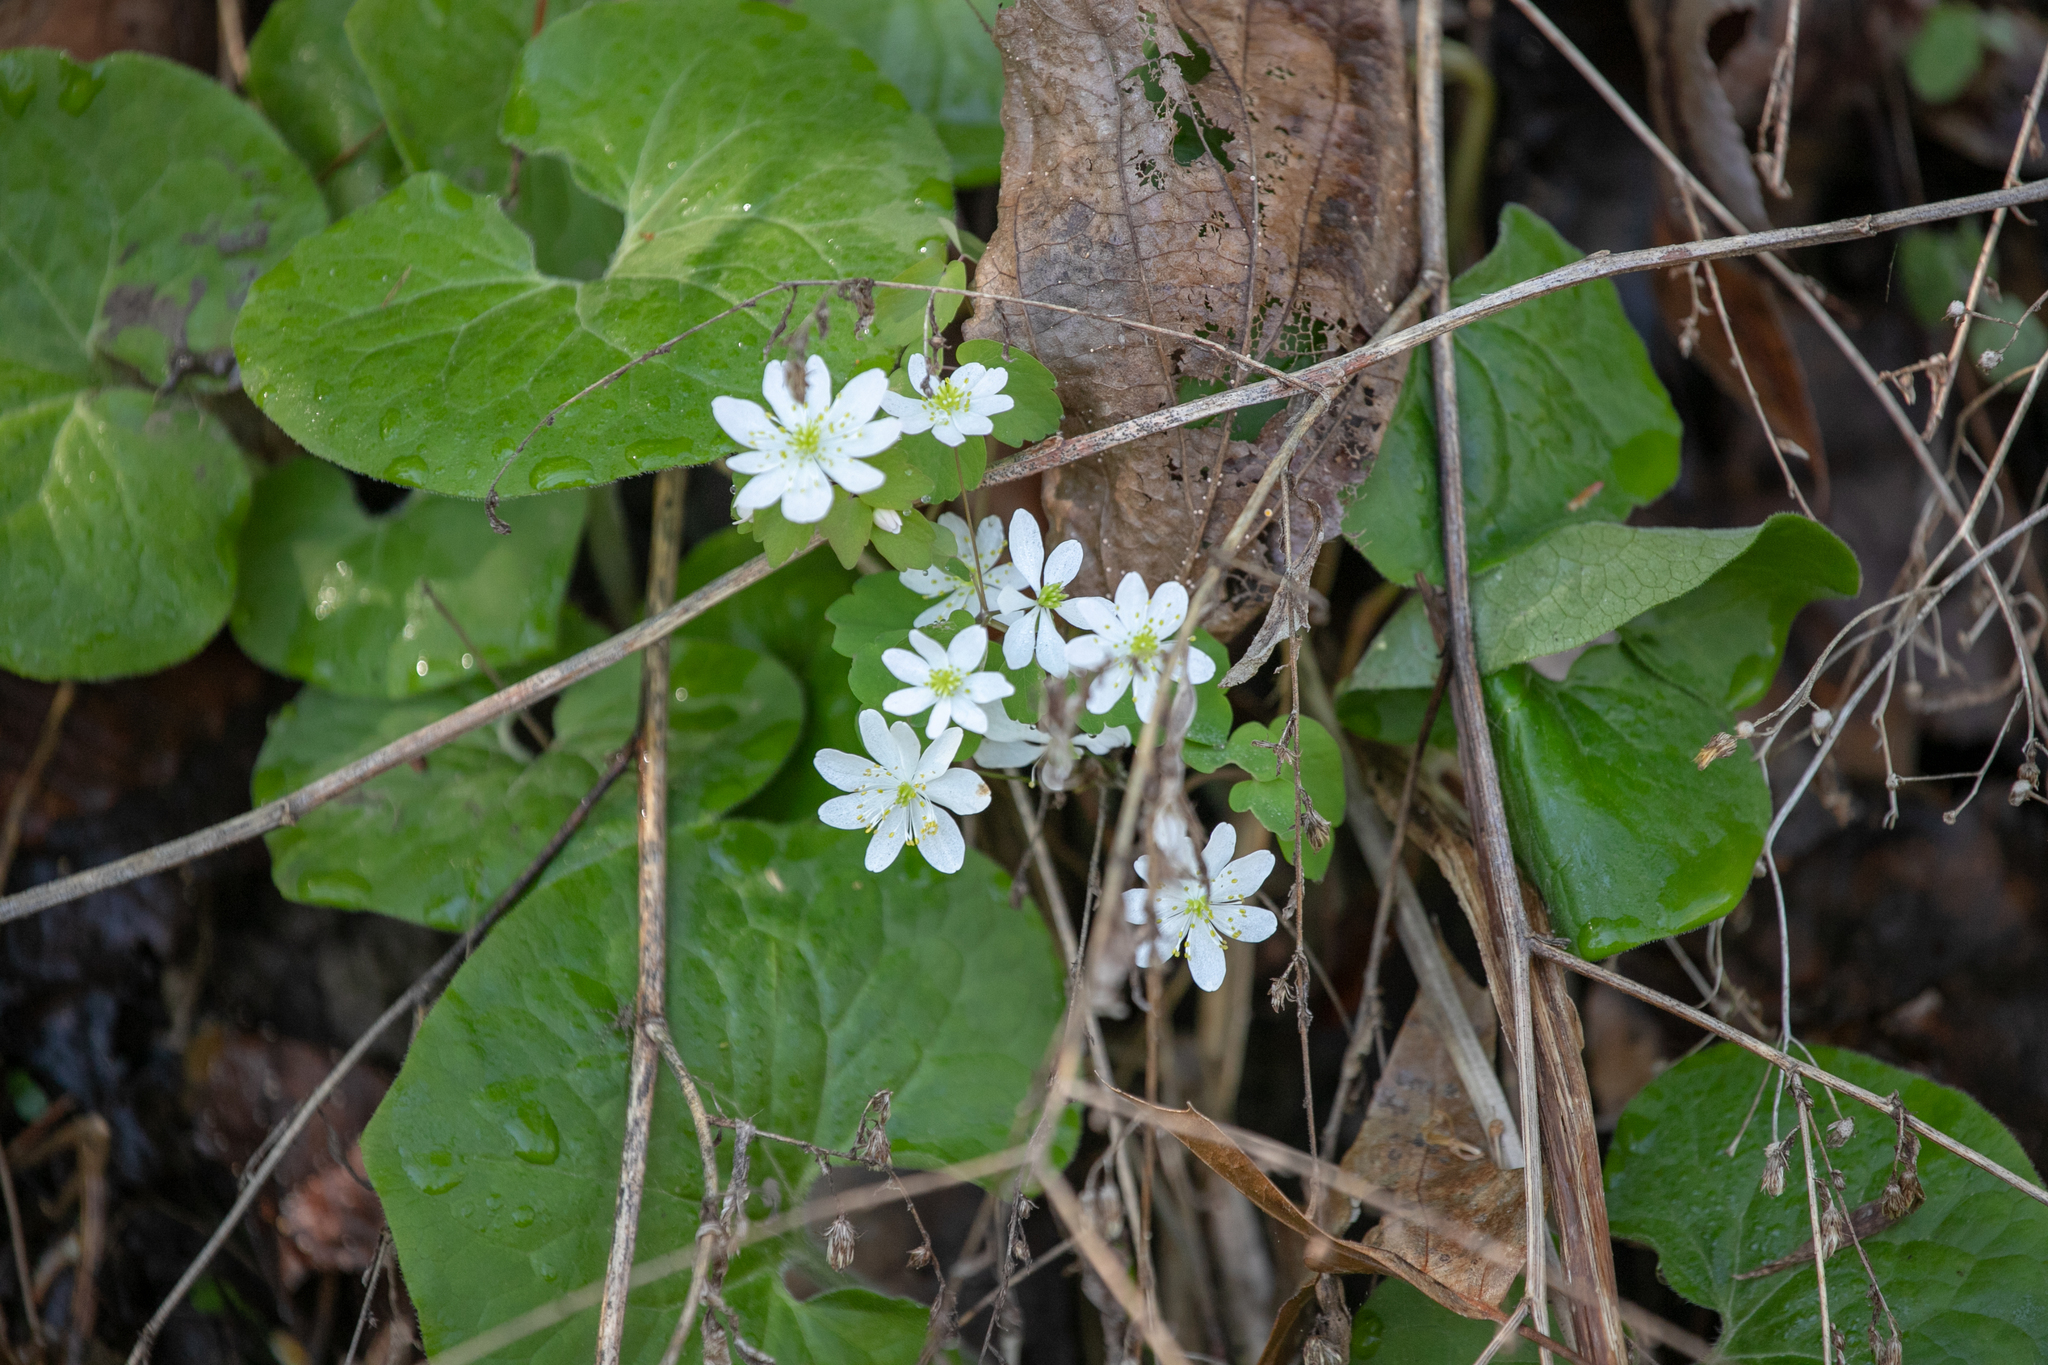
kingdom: Plantae
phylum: Tracheophyta
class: Magnoliopsida
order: Ranunculales
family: Ranunculaceae
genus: Thalictrum
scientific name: Thalictrum thalictroides
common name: Rue-anemone
